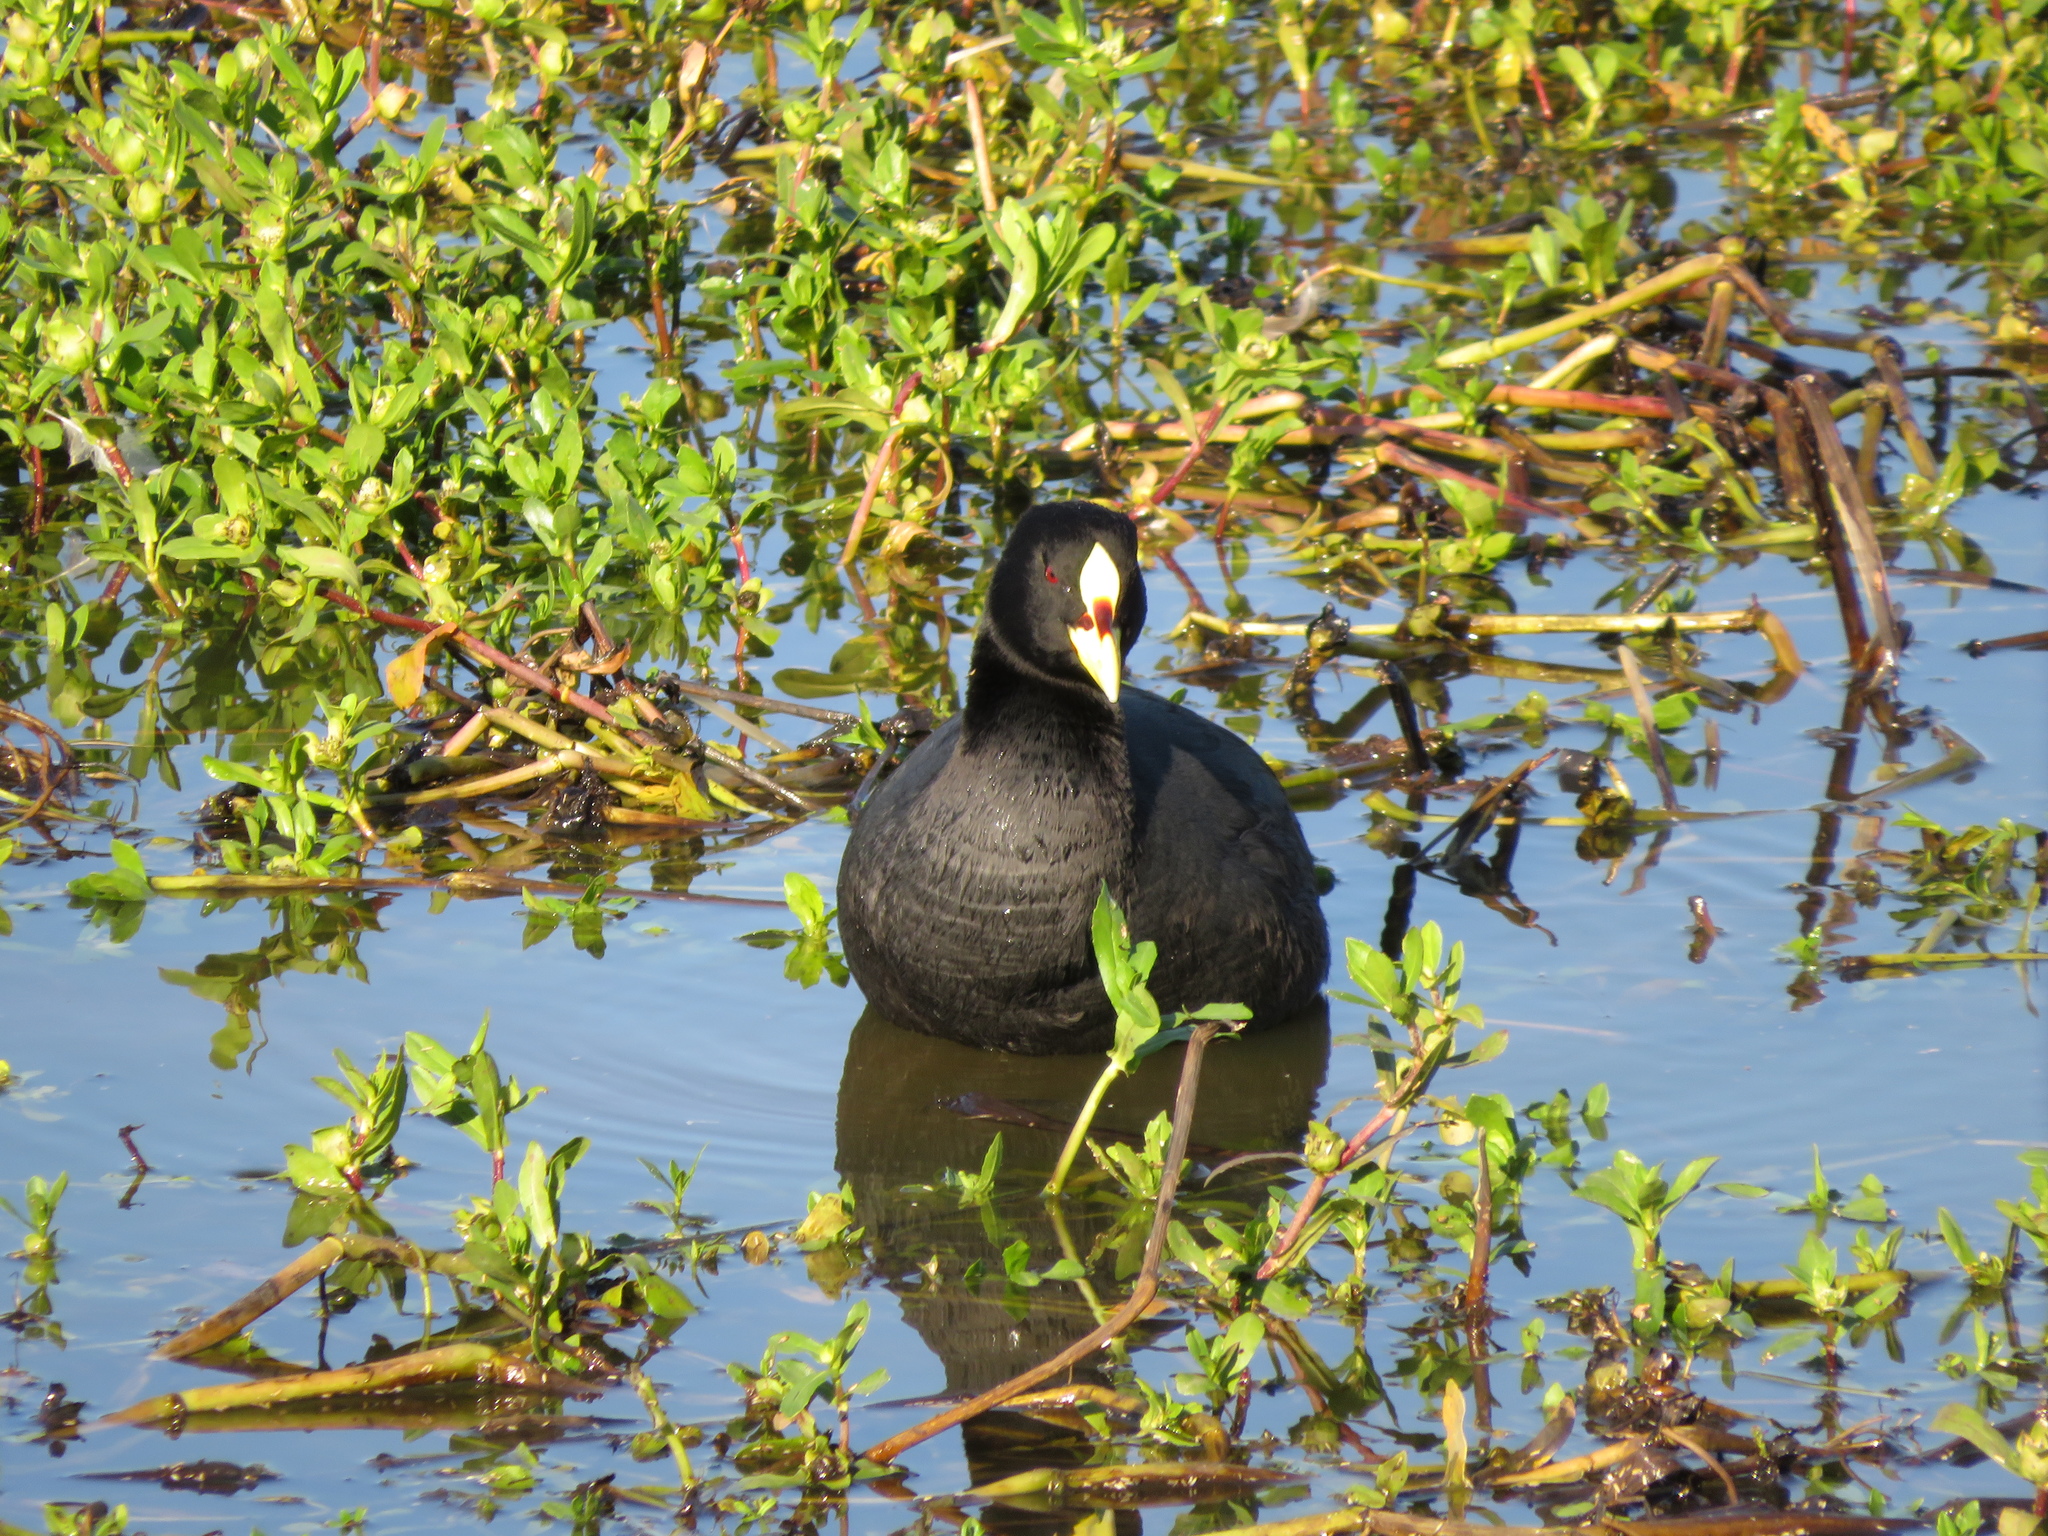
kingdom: Animalia
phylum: Chordata
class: Aves
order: Gruiformes
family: Rallidae
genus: Fulica
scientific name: Fulica armillata
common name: Red-gartered coot
